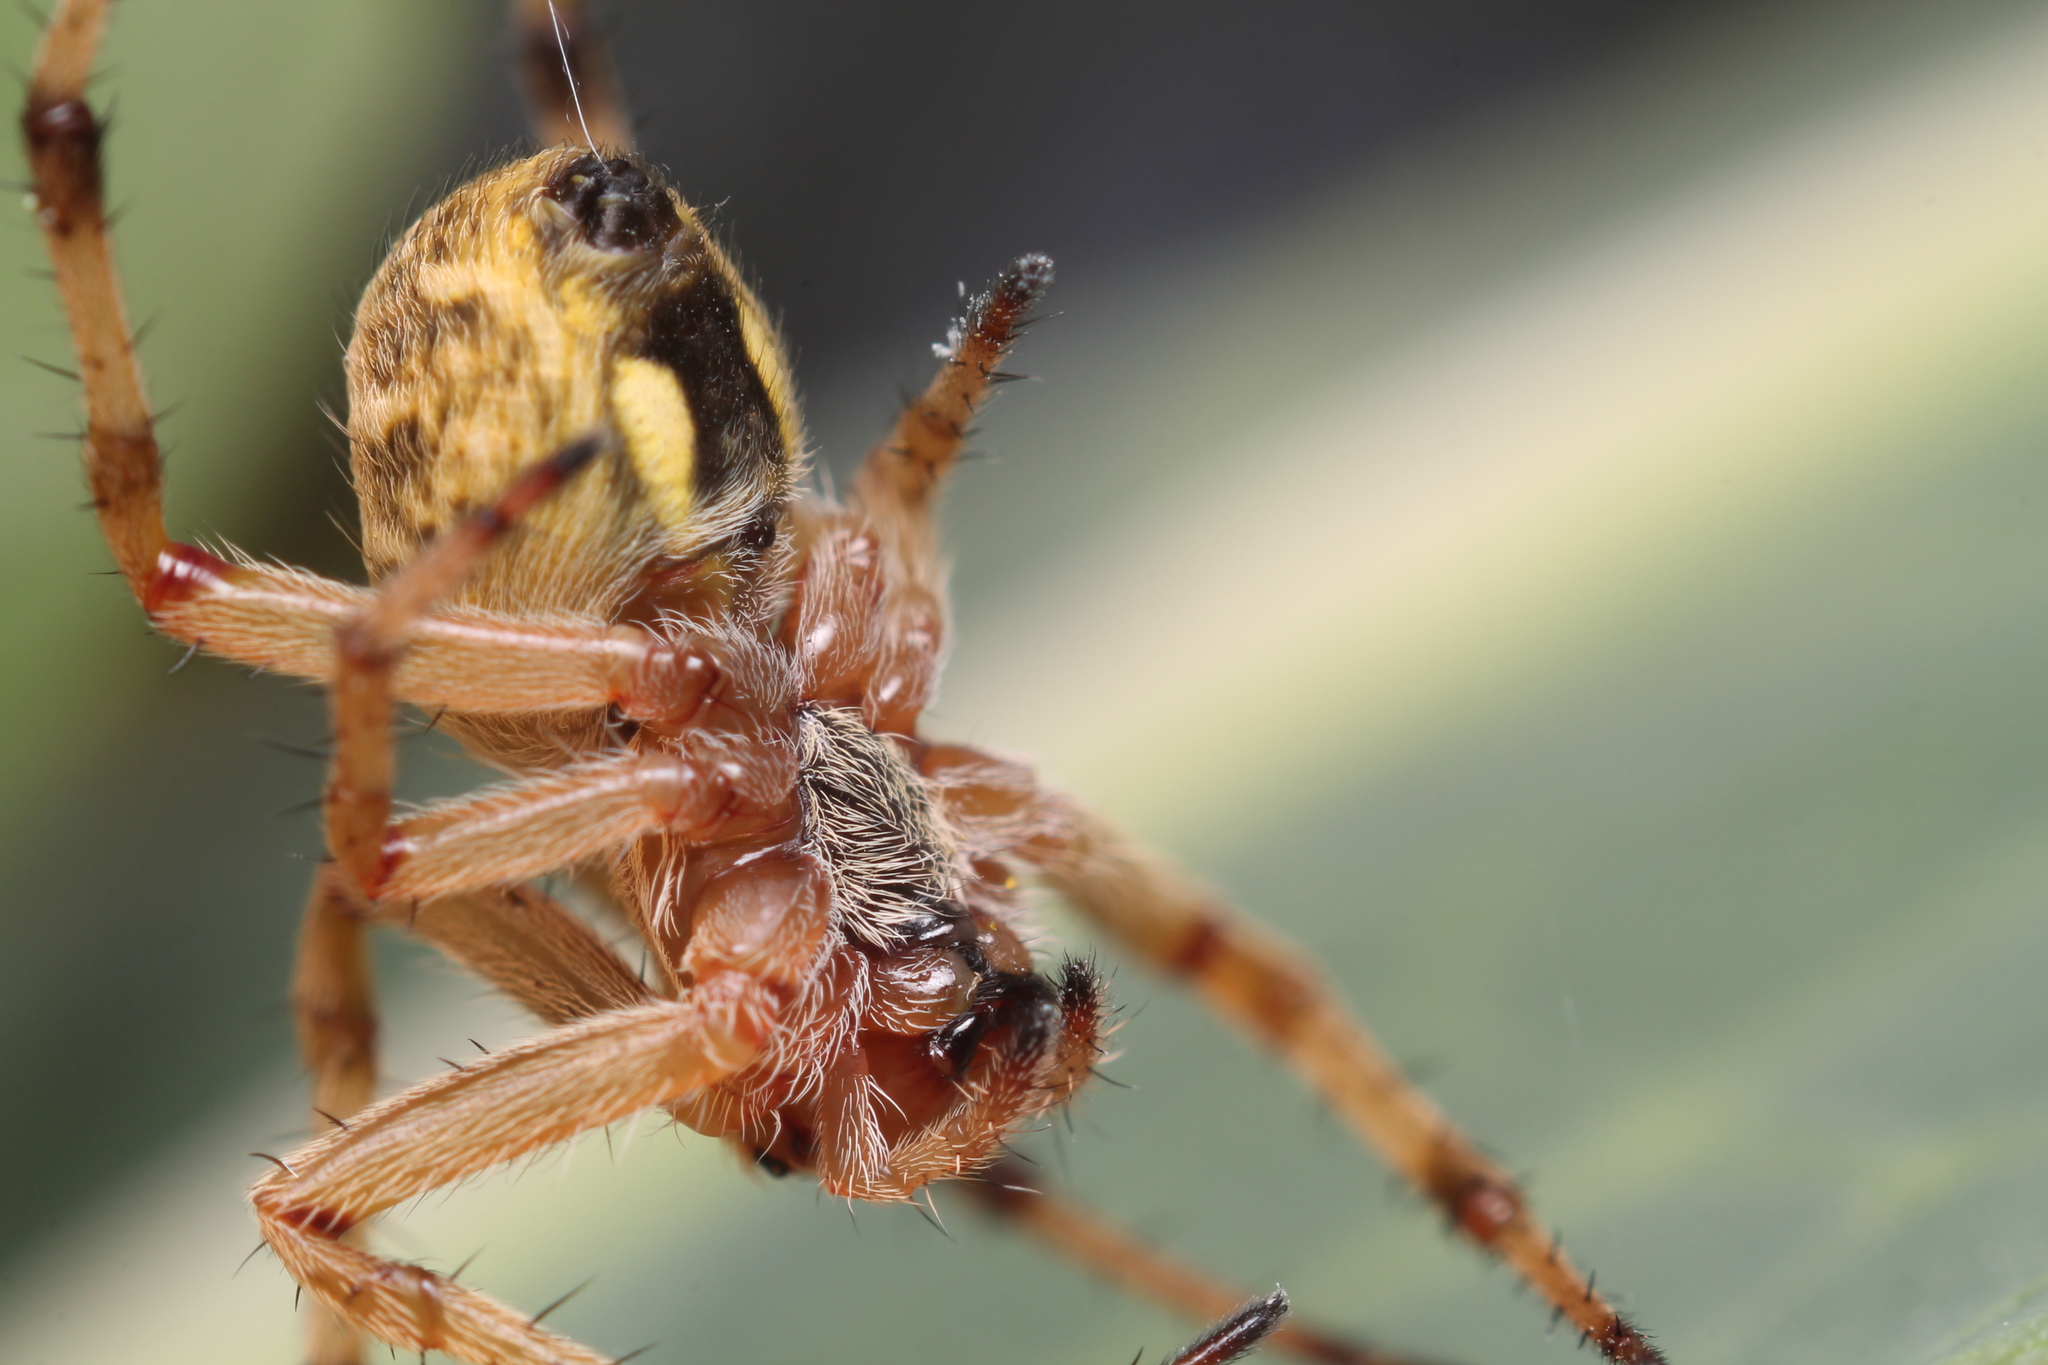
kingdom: Animalia
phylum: Arthropoda
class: Arachnida
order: Araneae
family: Araneidae
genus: Salsa
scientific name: Salsa fuliginata
